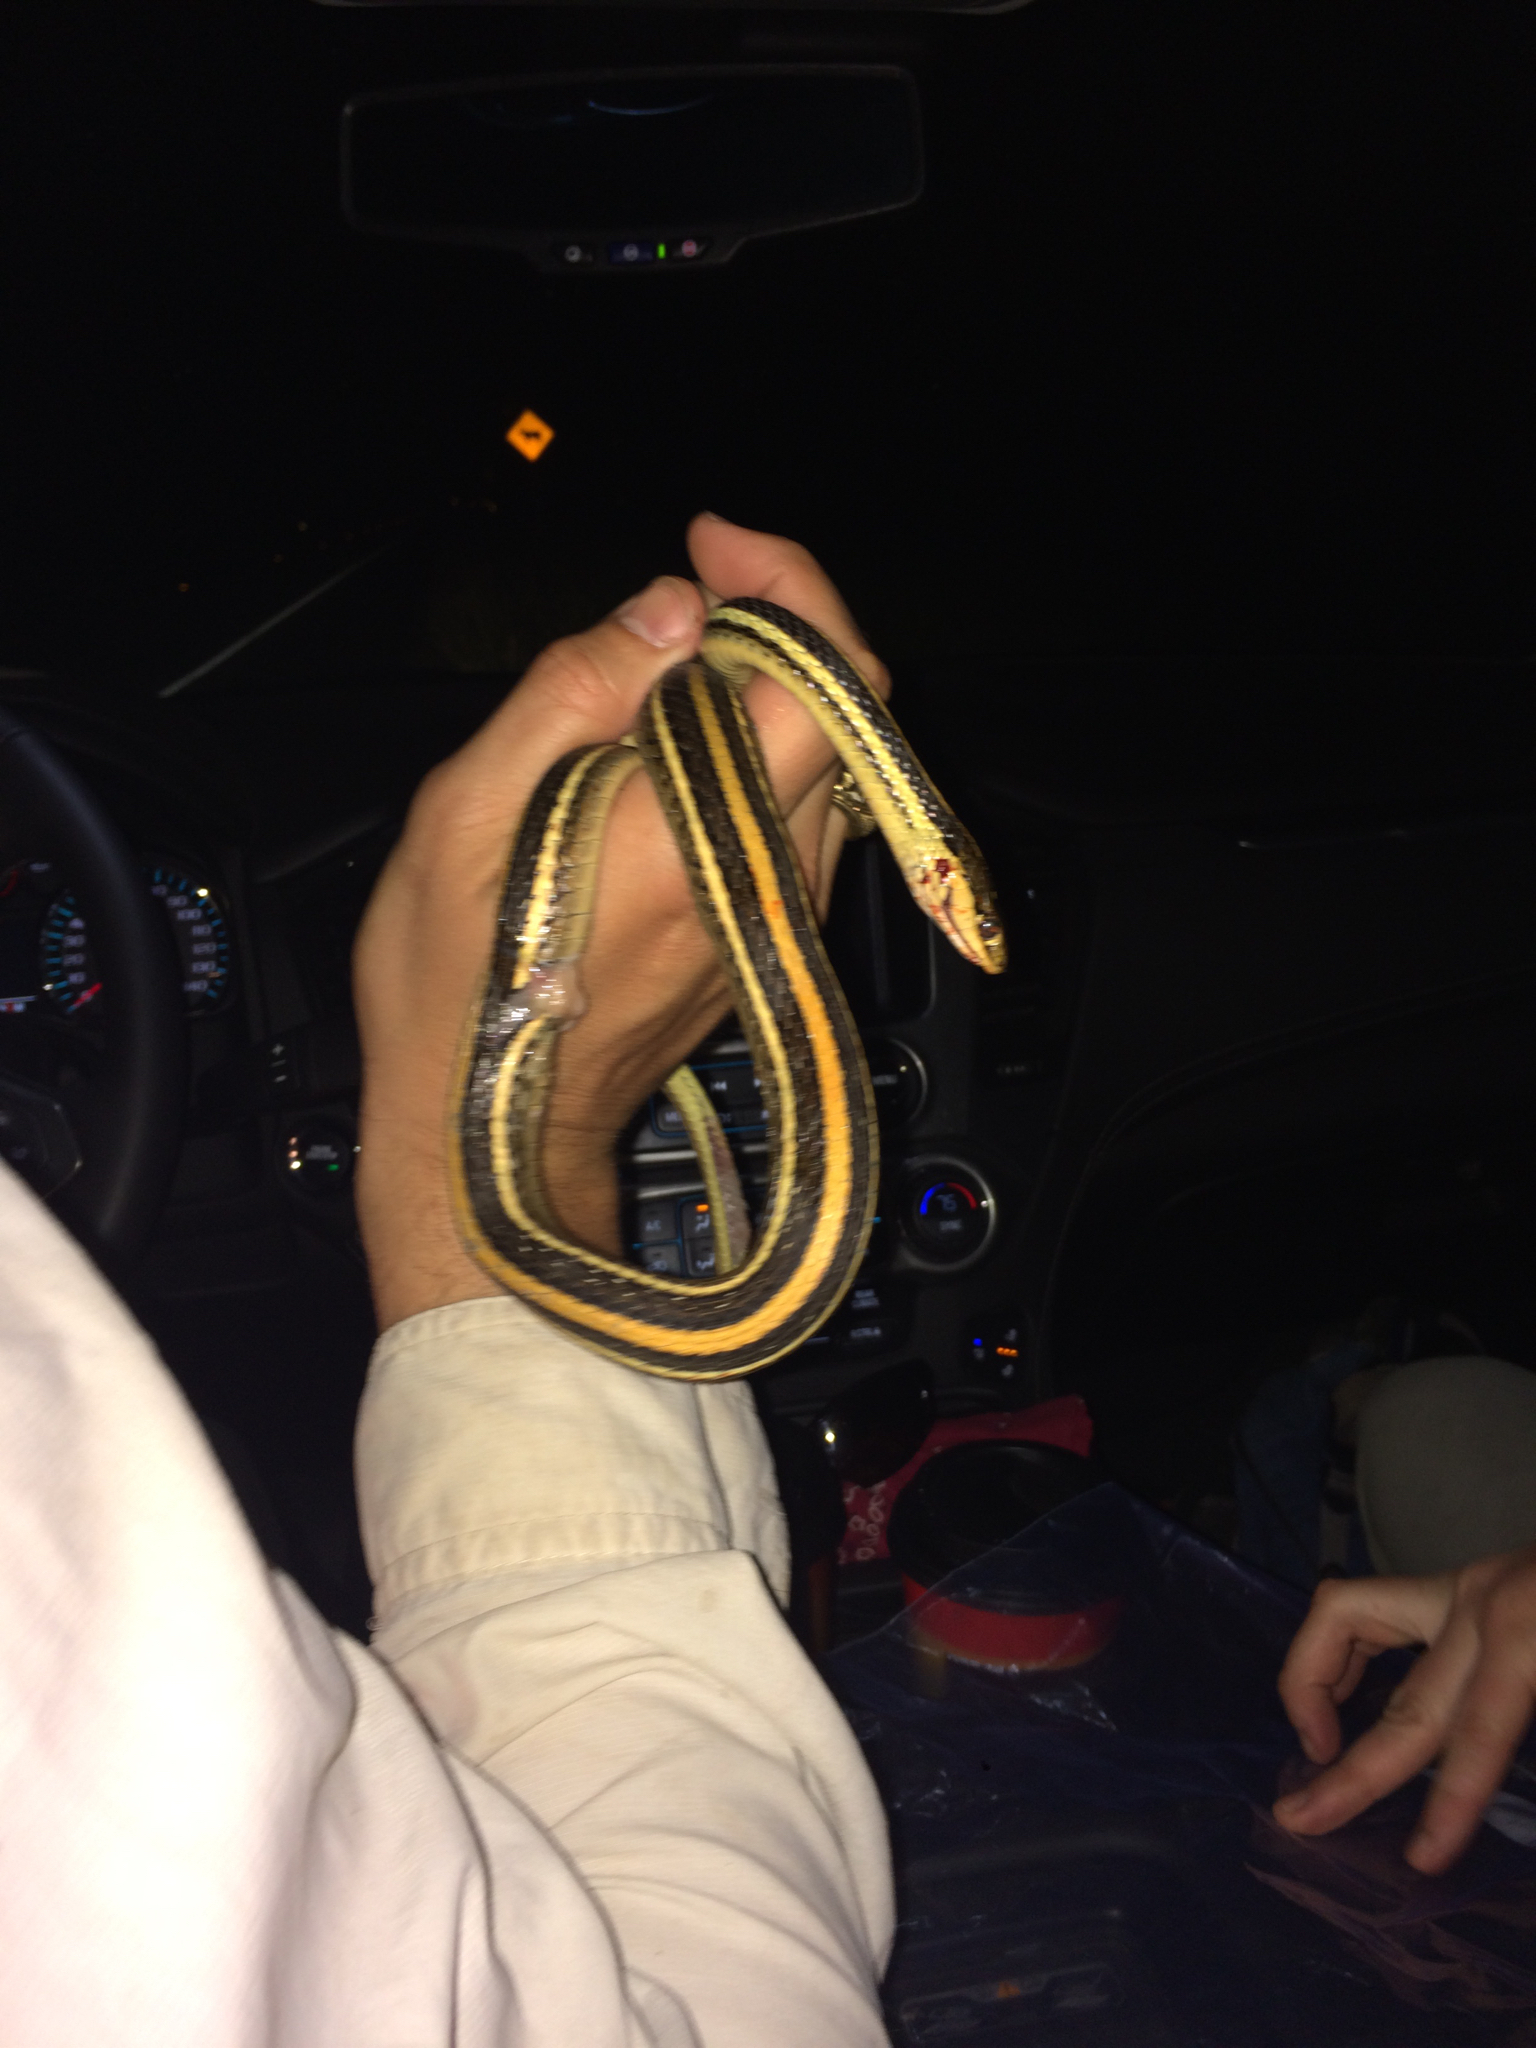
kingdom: Animalia
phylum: Chordata
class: Squamata
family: Colubridae
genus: Thamnophis
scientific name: Thamnophis proximus
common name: Western ribbon snake
